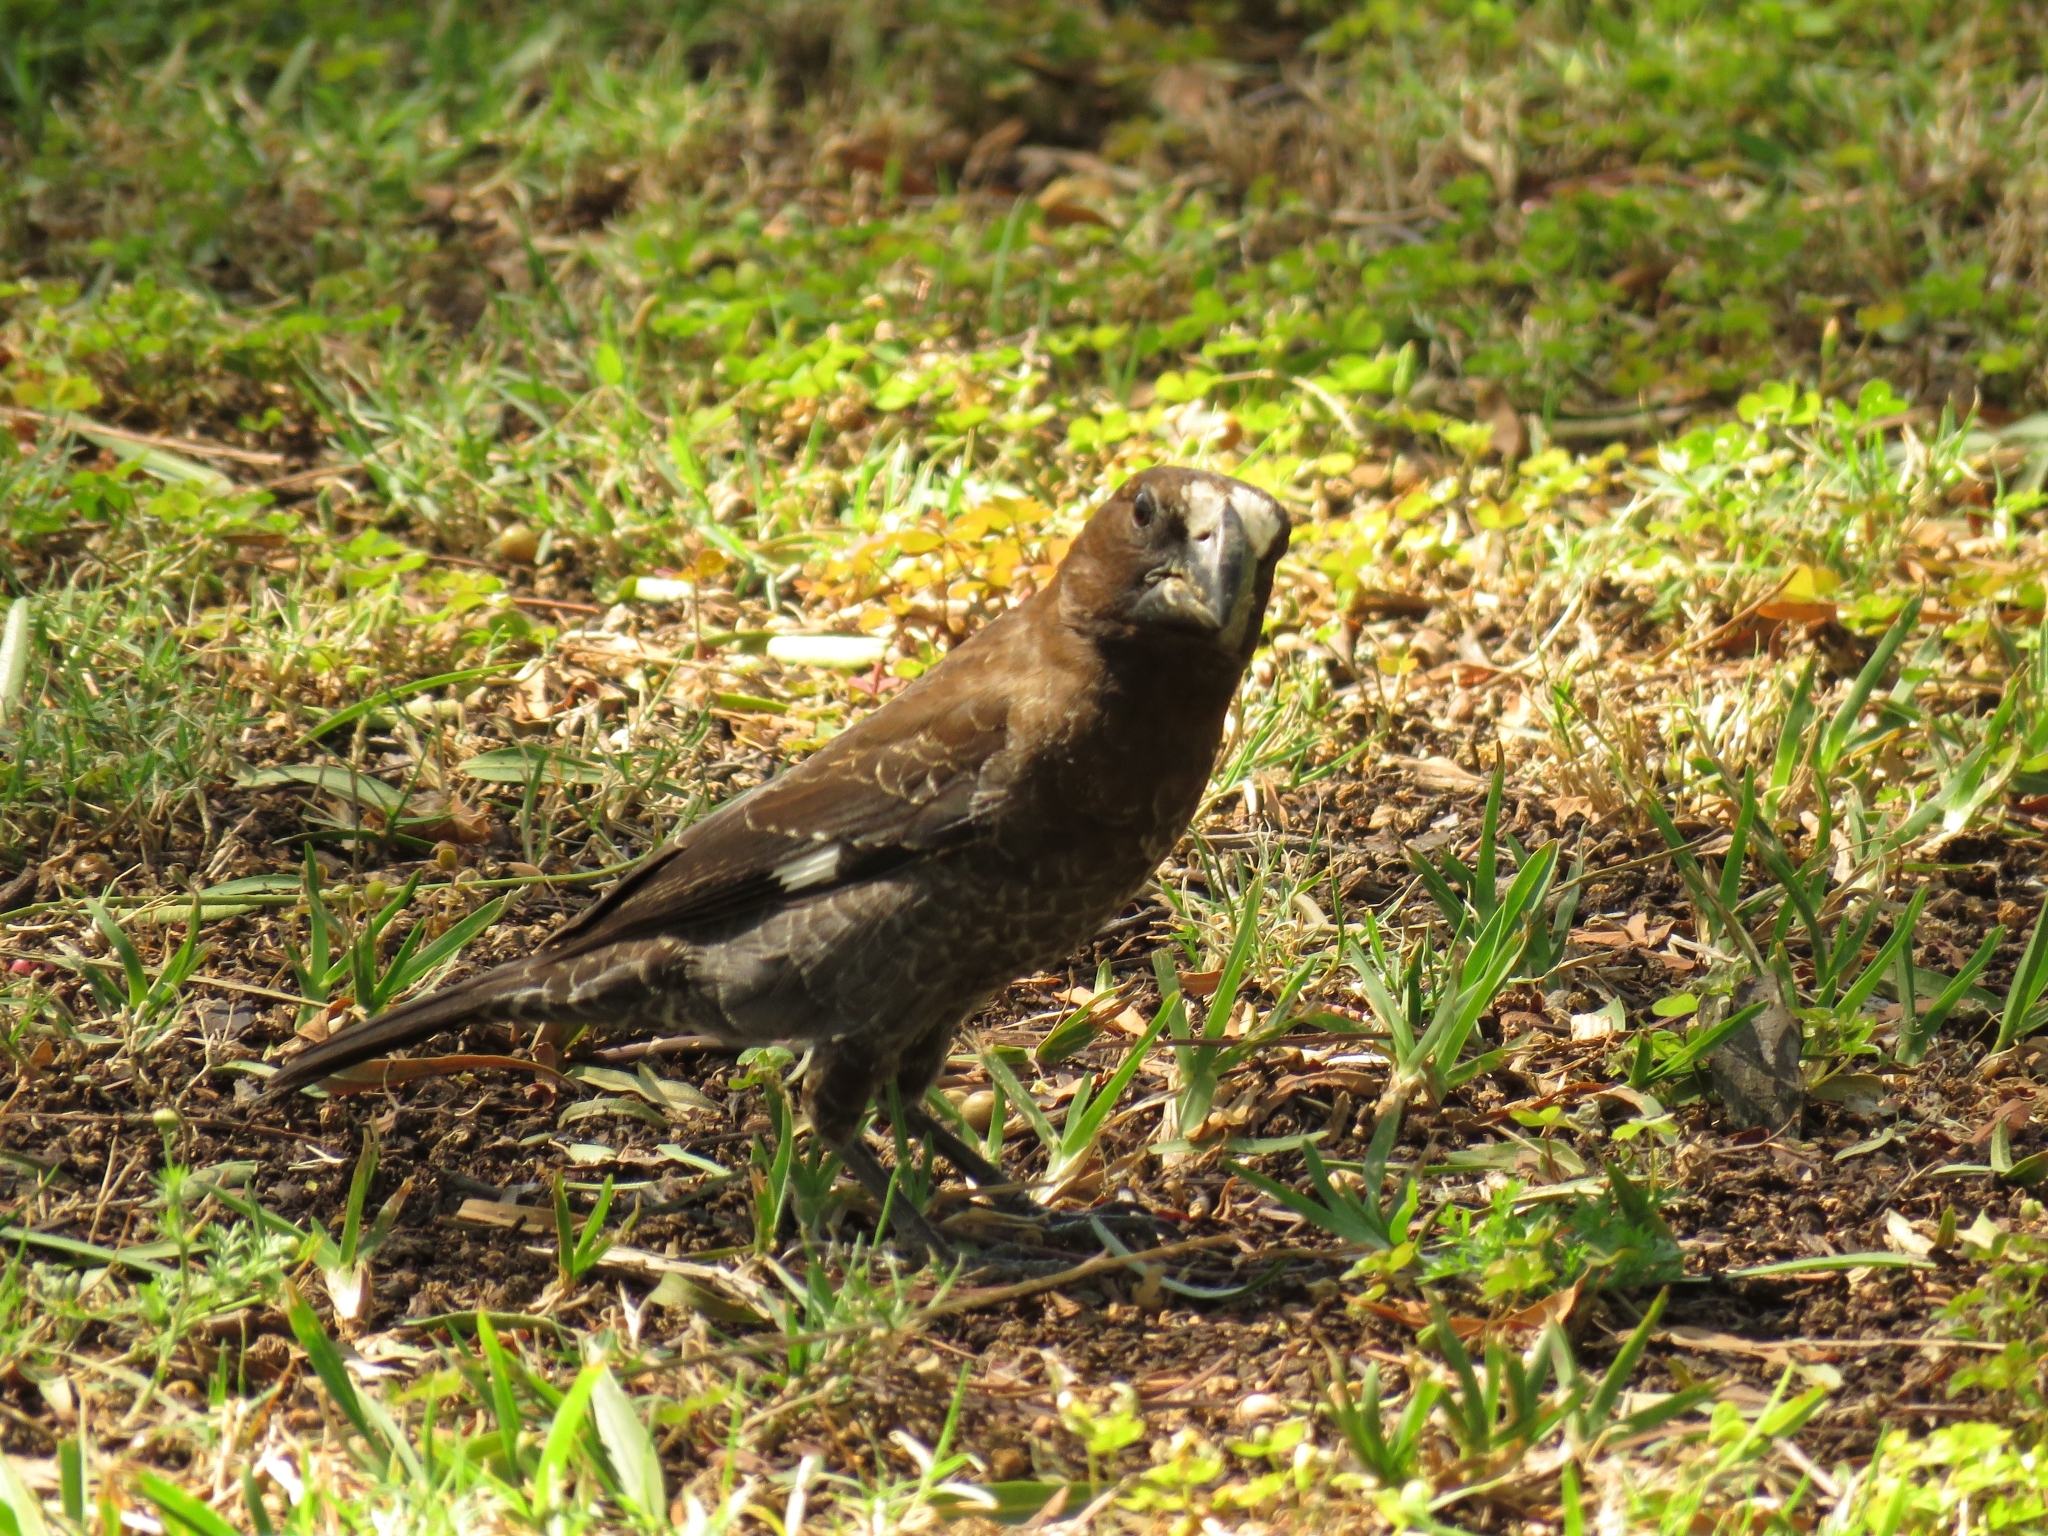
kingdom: Animalia
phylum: Chordata
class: Aves
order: Passeriformes
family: Ploceidae
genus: Amblyospiza
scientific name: Amblyospiza albifrons
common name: Thick-billed weaver
